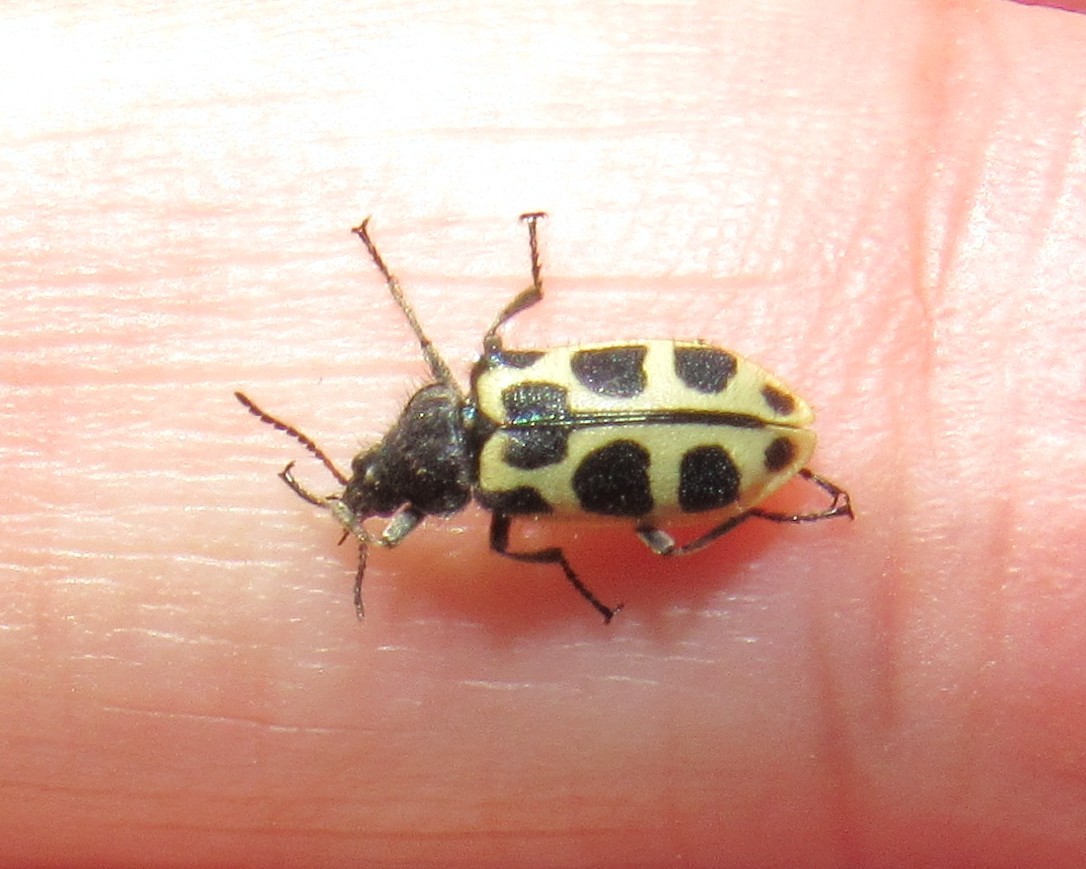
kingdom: Animalia
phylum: Arthropoda
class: Insecta
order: Coleoptera
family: Melyridae
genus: Astylus
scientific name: Astylus
